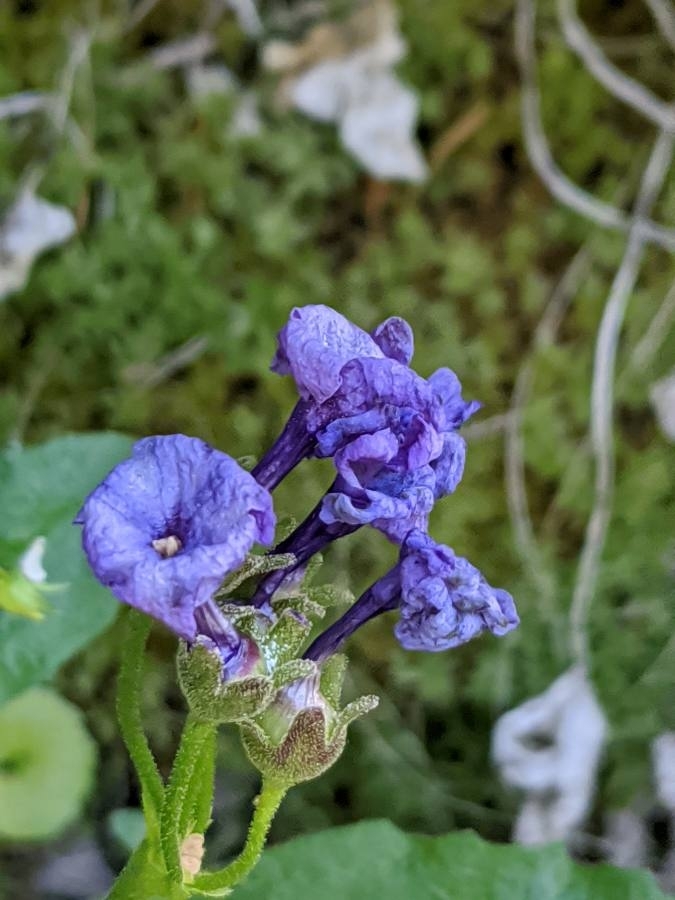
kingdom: Plantae
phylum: Tracheophyta
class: Magnoliopsida
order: Ericales
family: Primulaceae
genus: Primula
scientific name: Primula latifolia
